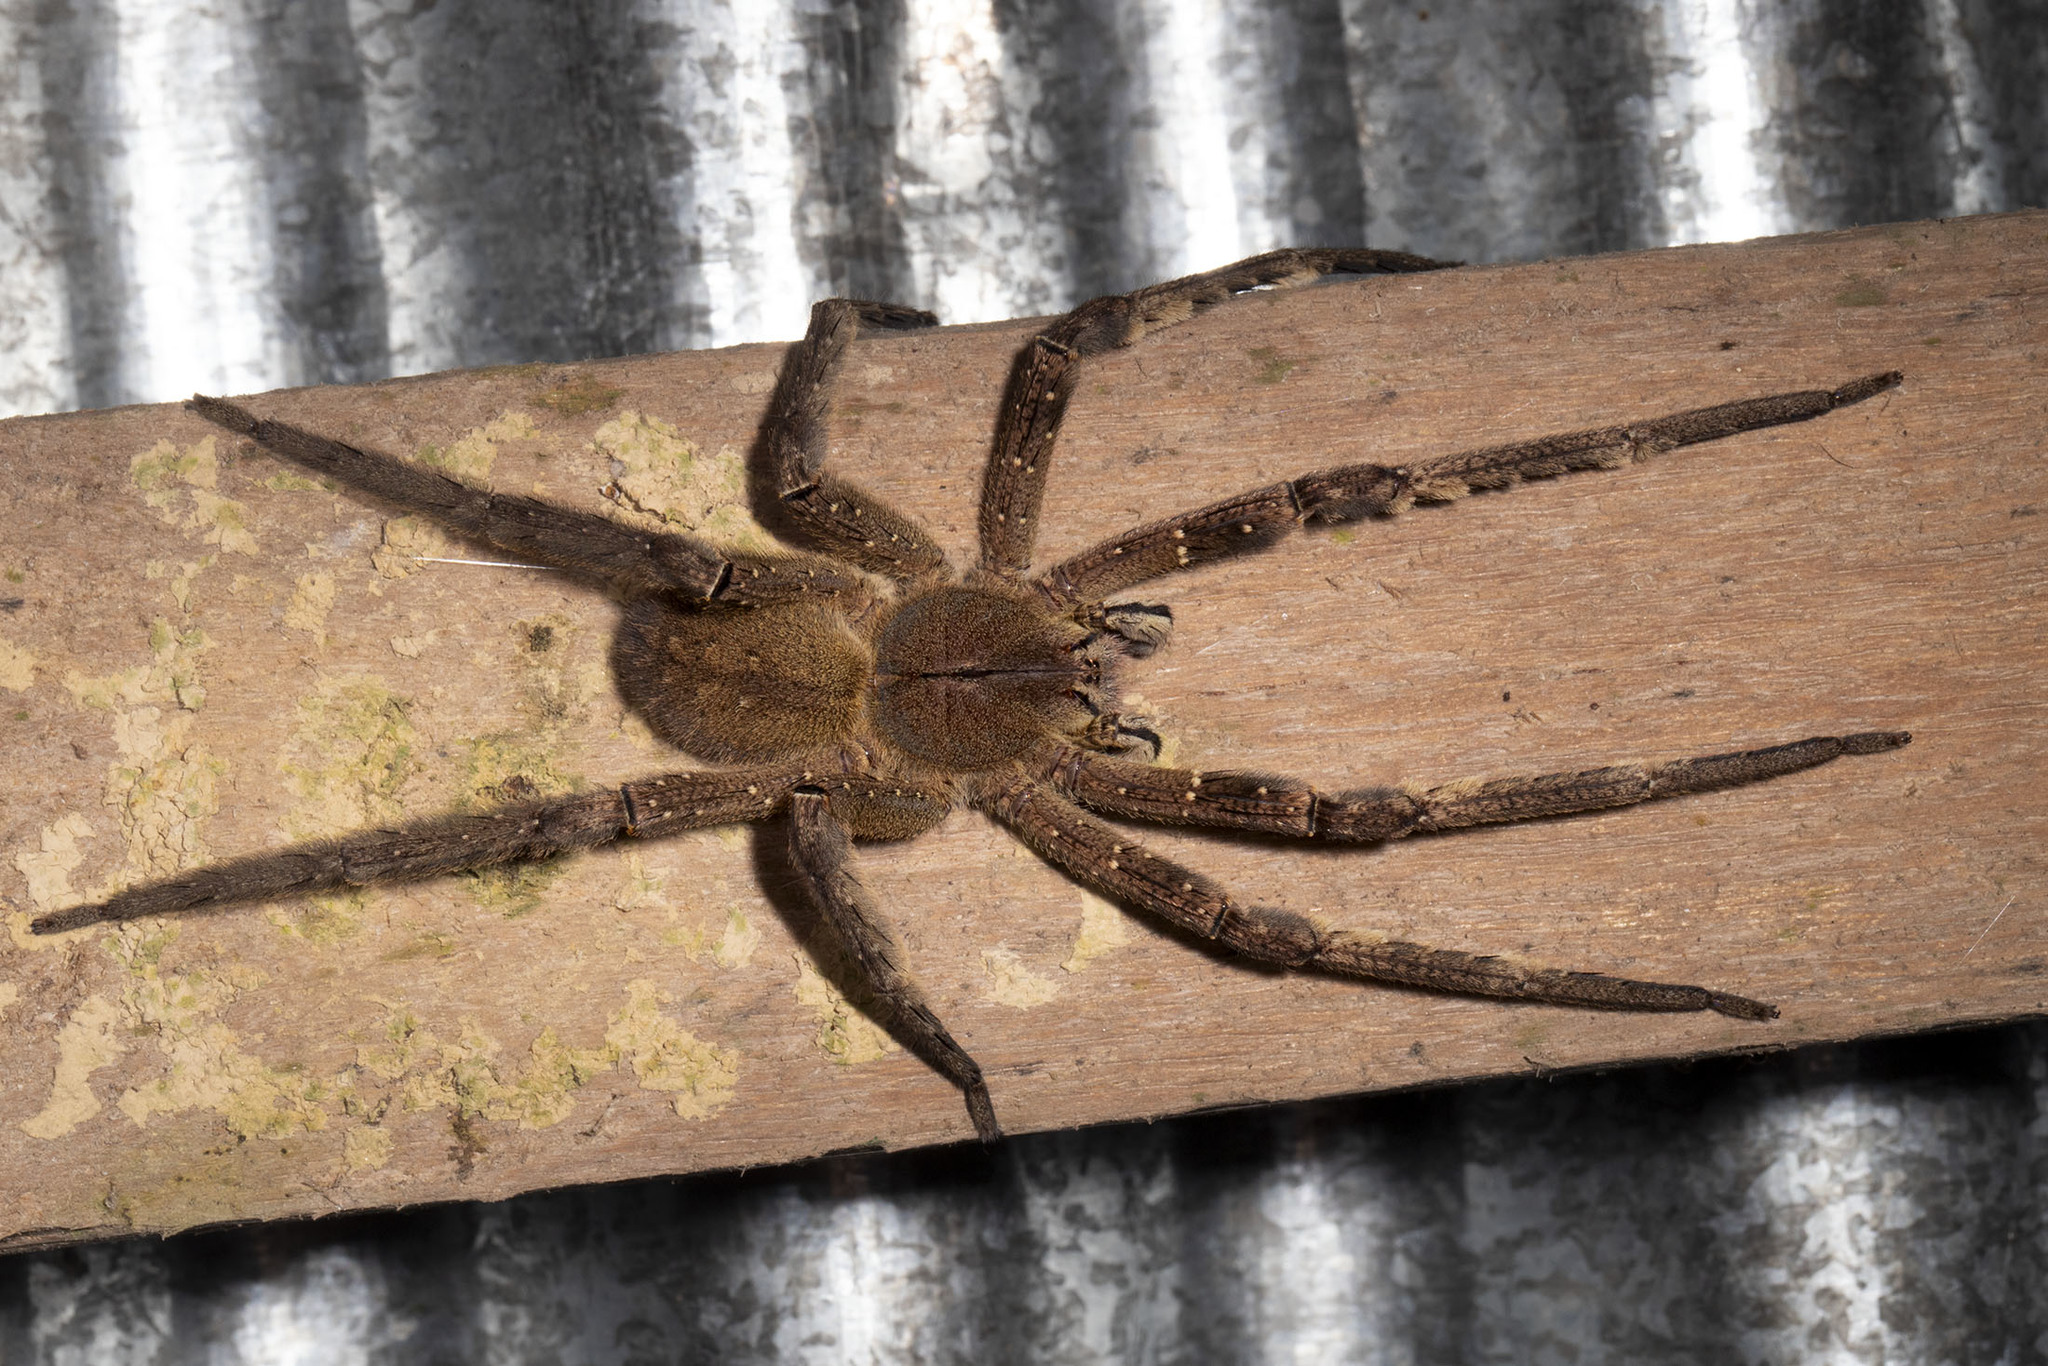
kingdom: Animalia
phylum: Arthropoda
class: Arachnida
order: Araneae
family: Ctenidae
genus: Phoneutria
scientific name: Phoneutria fera
